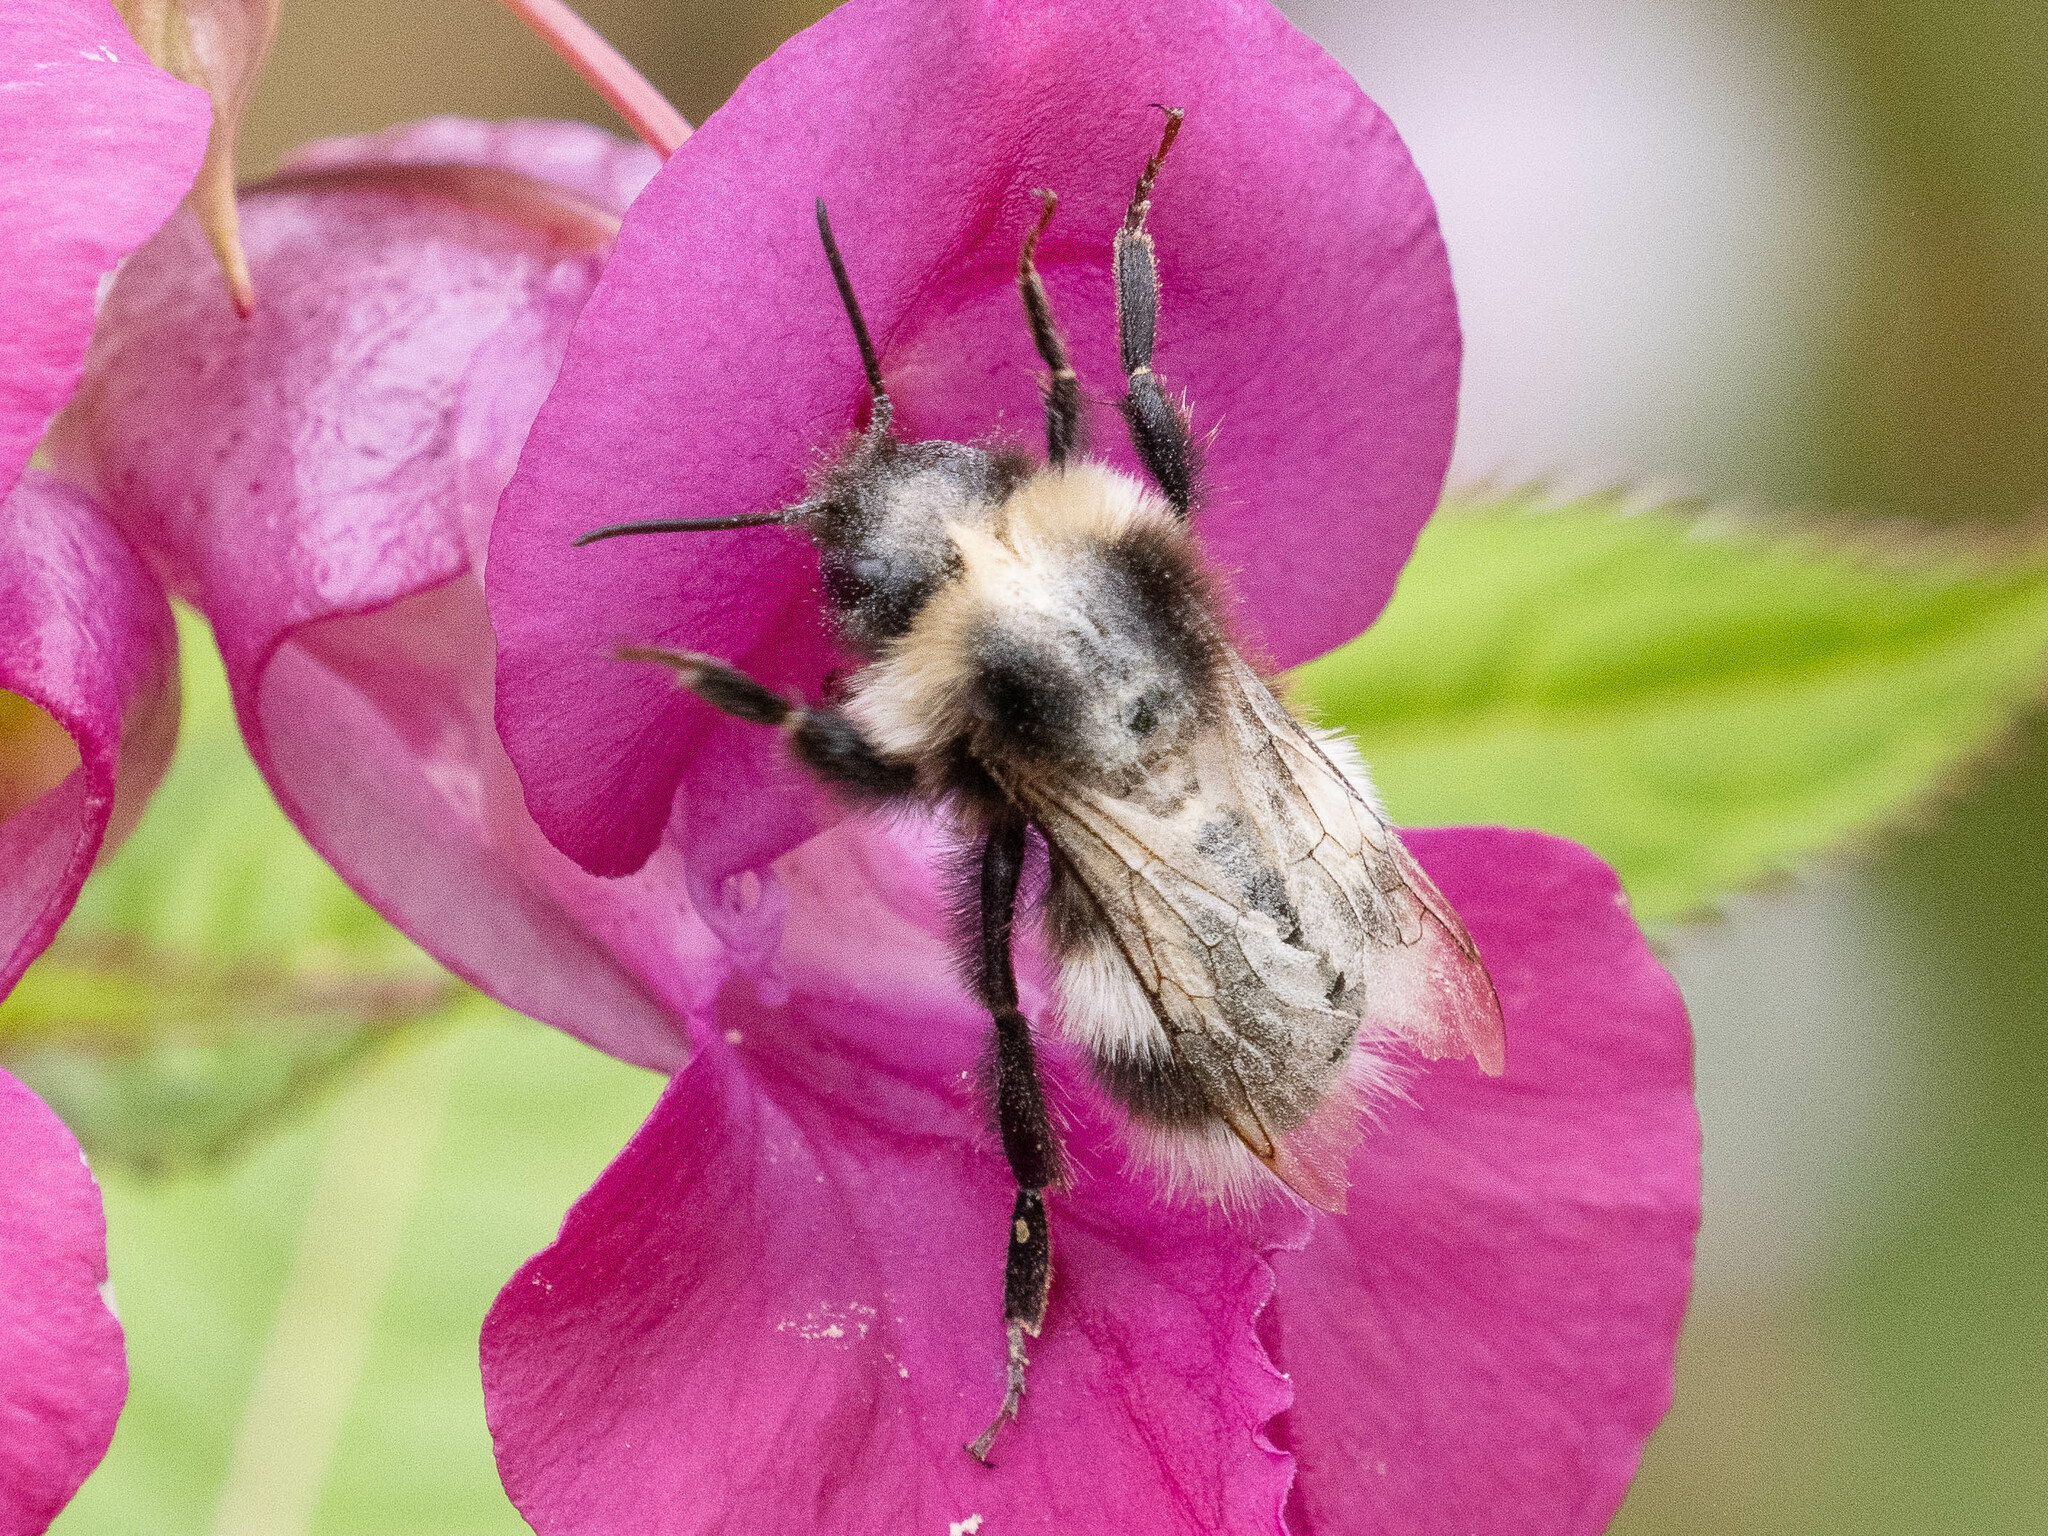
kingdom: Animalia
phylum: Arthropoda
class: Insecta
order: Hymenoptera
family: Apidae
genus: Bombus
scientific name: Bombus
